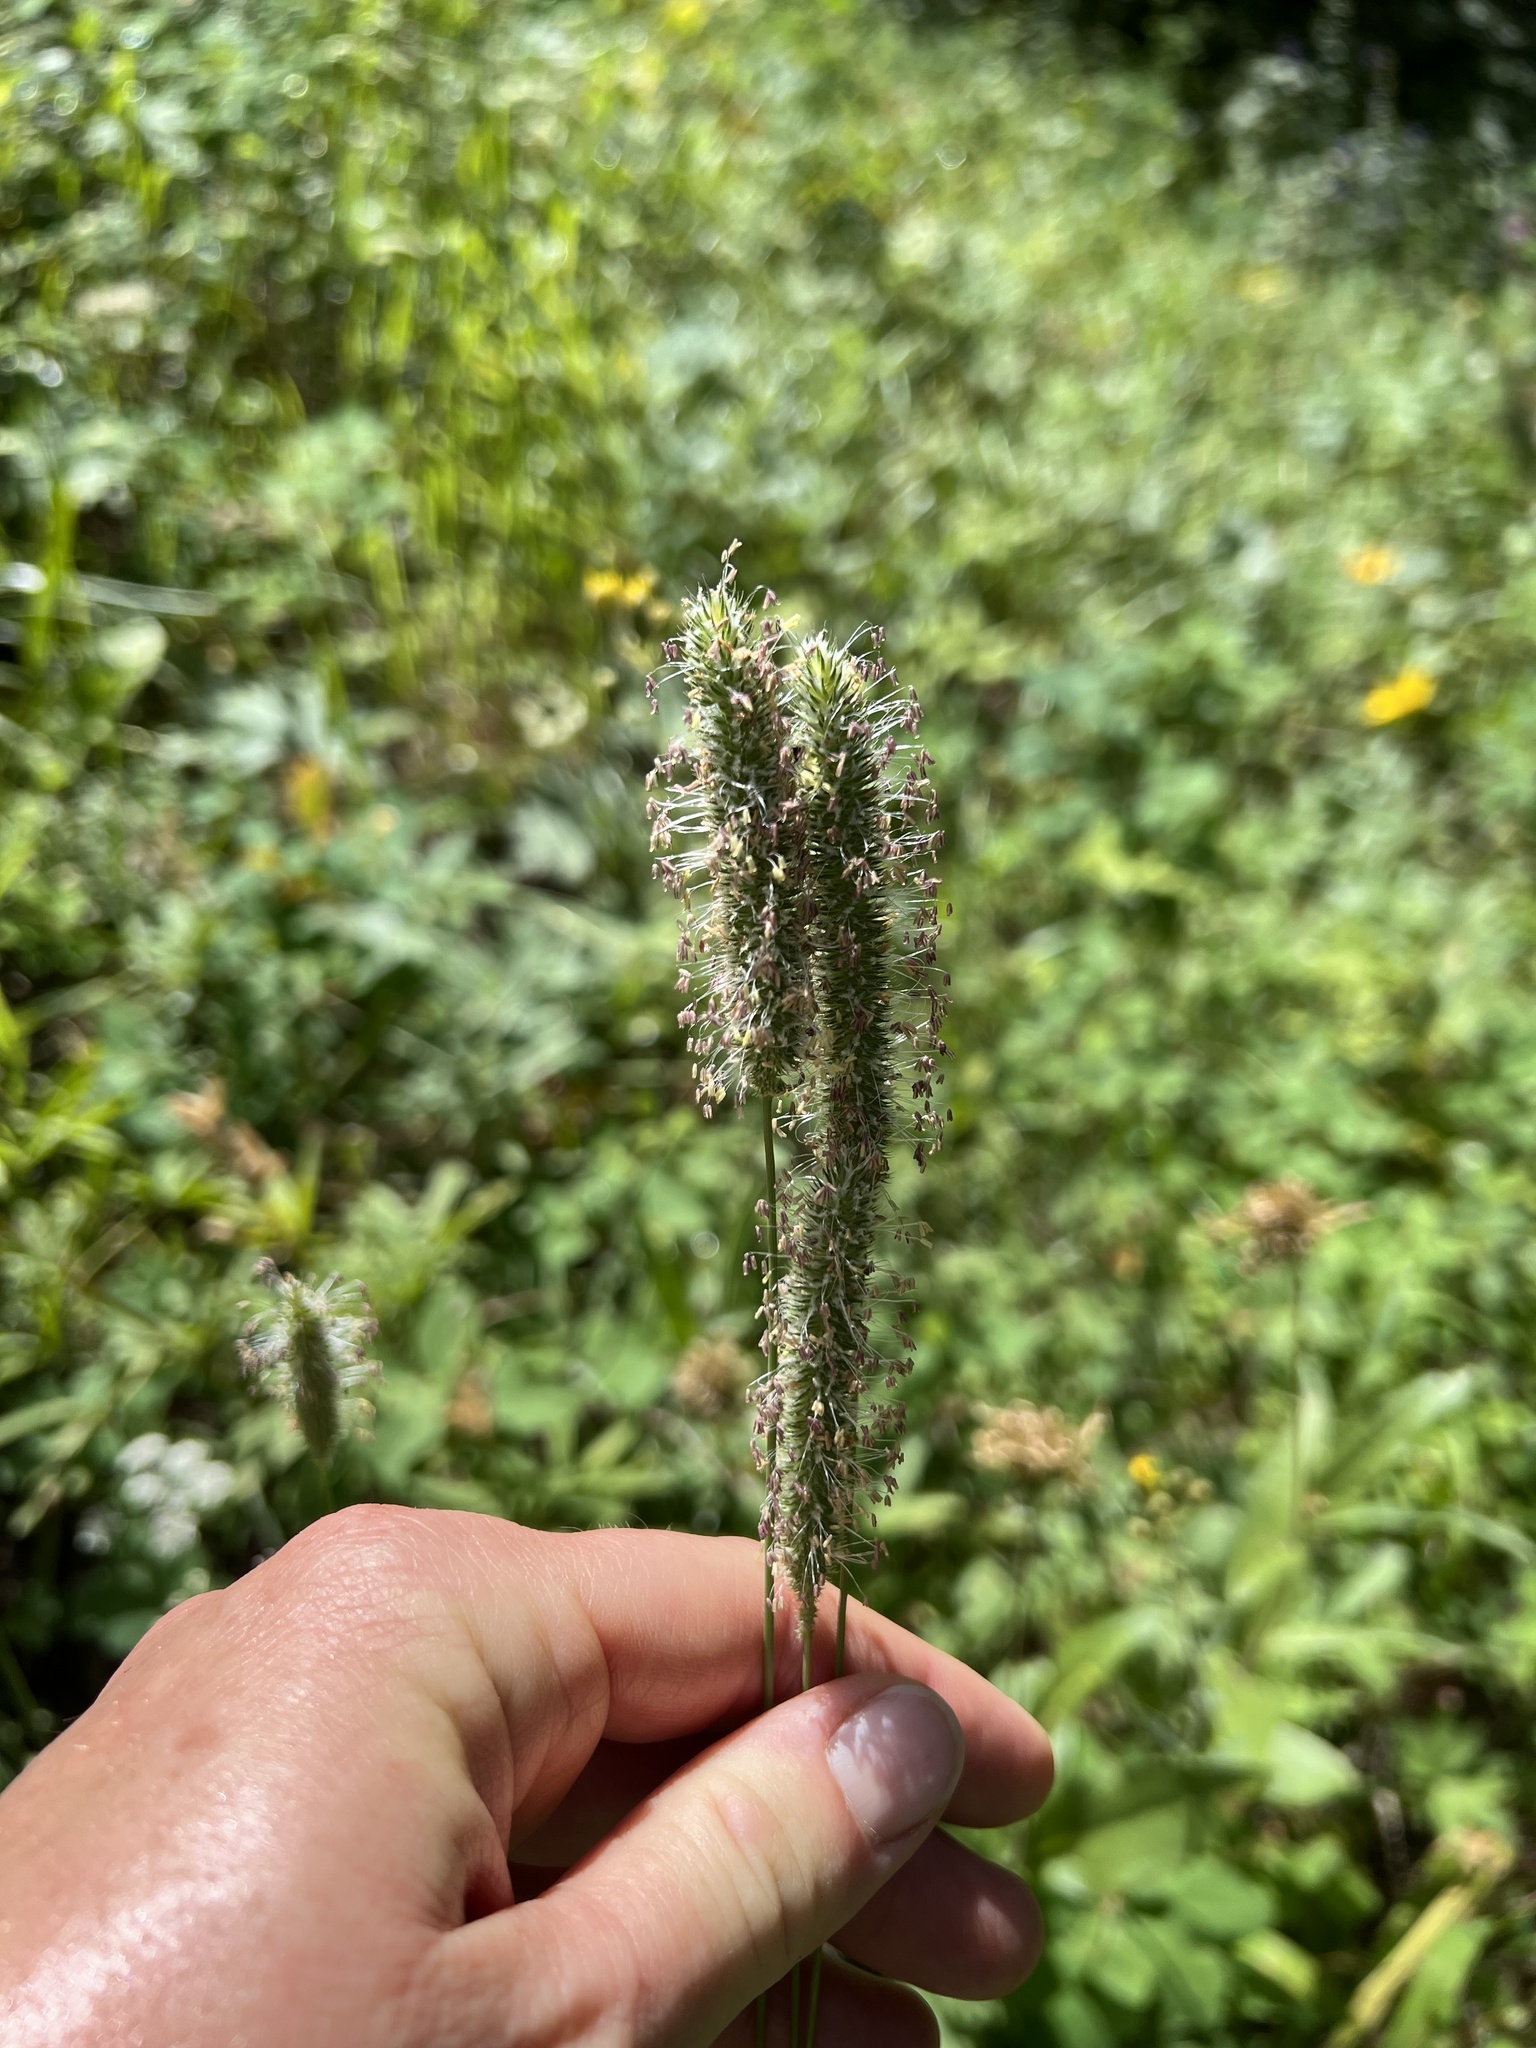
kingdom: Plantae
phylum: Tracheophyta
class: Liliopsida
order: Poales
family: Poaceae
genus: Phleum
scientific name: Phleum pratense
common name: Timothy grass
